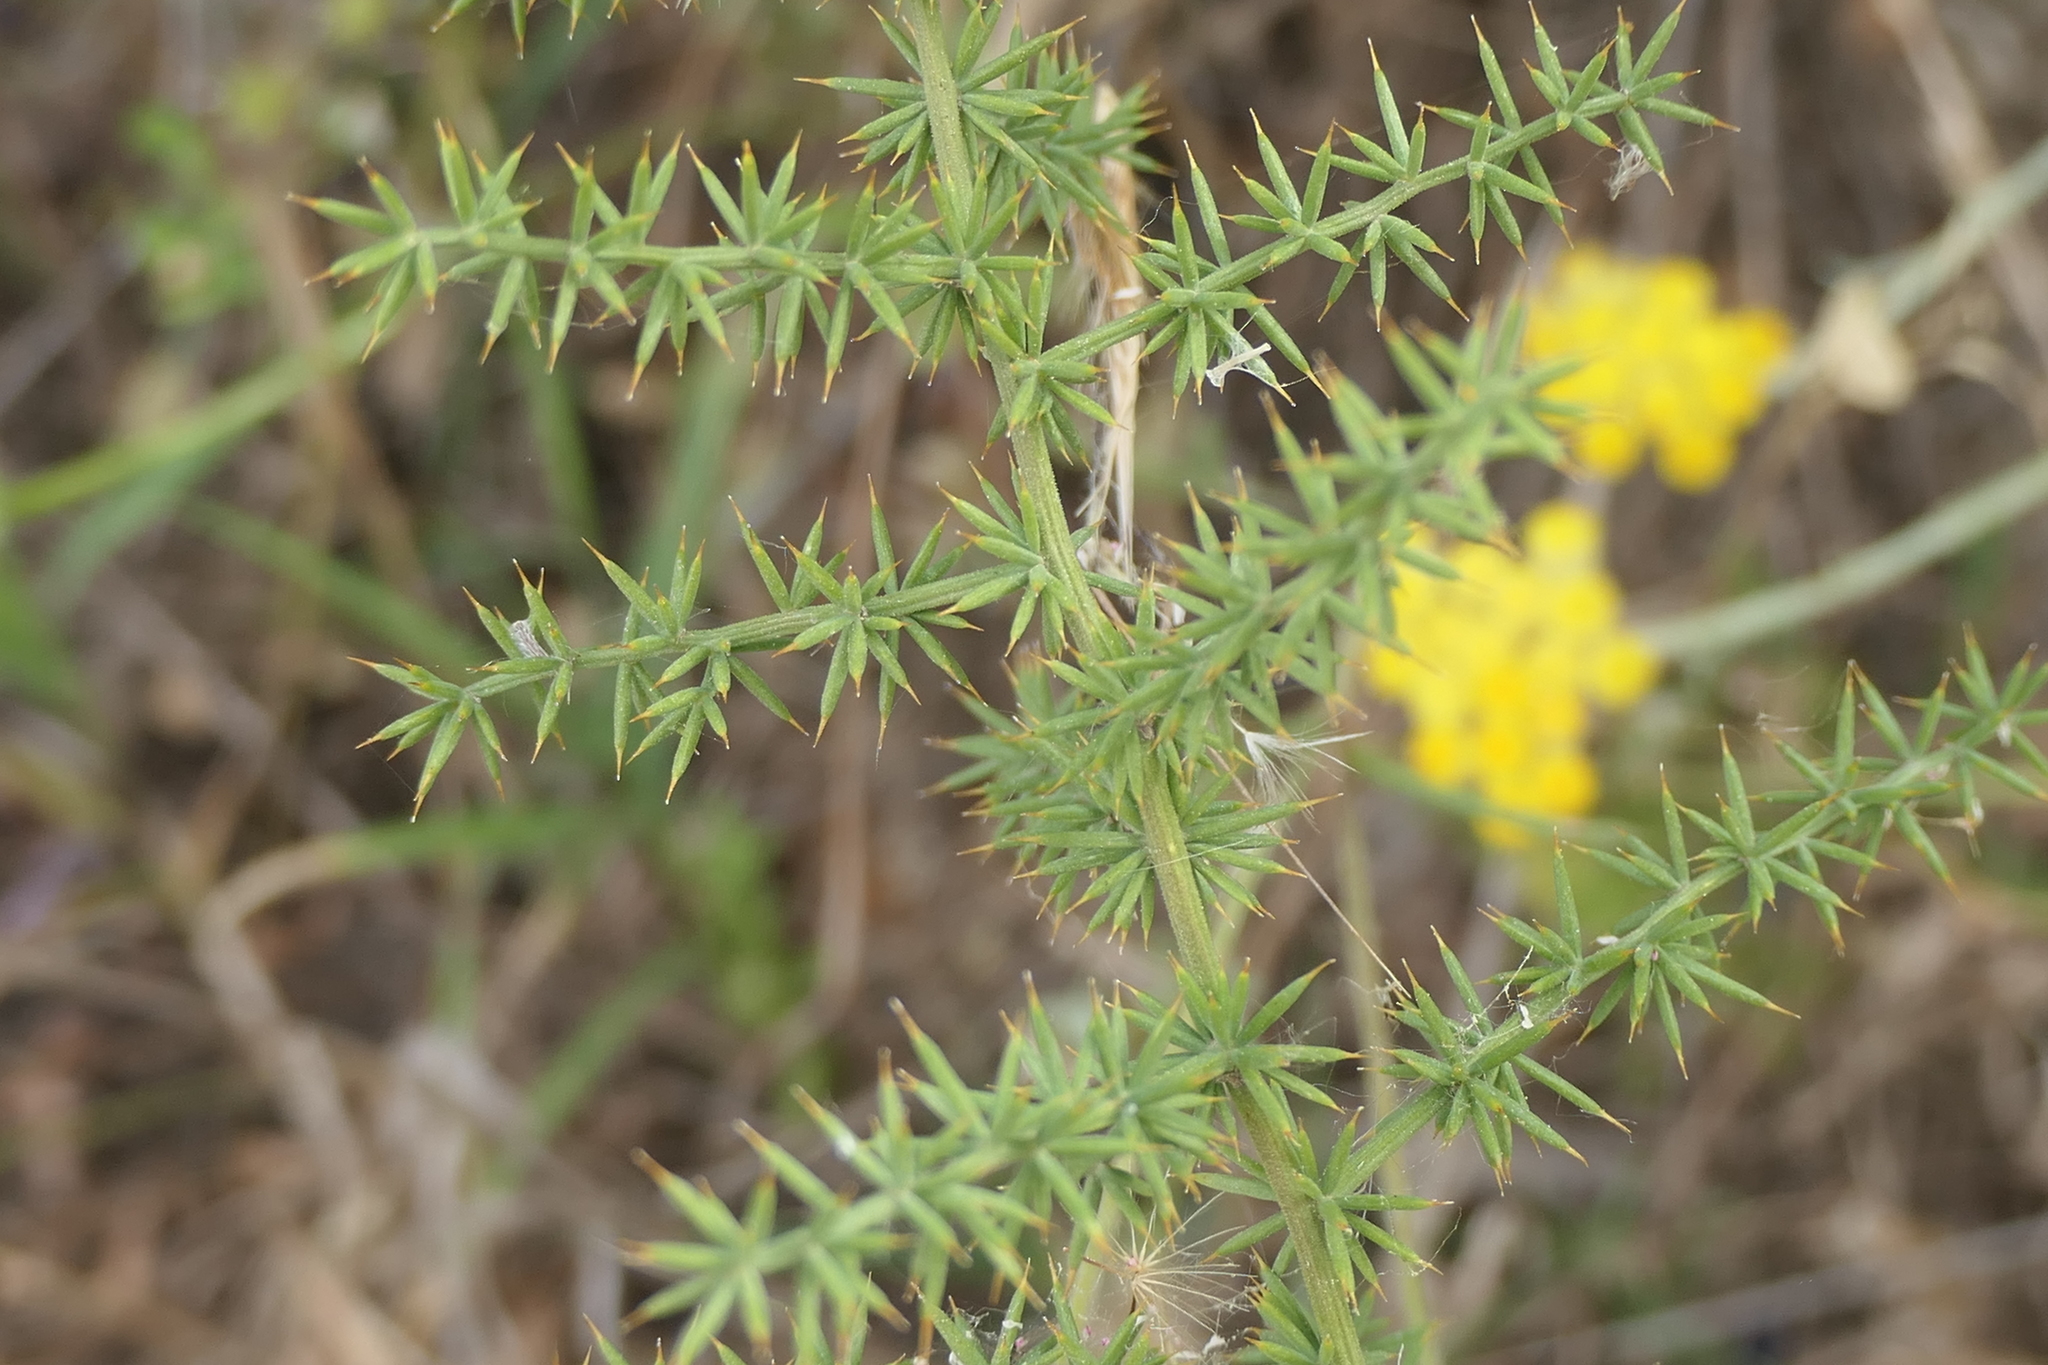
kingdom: Plantae
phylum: Tracheophyta
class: Liliopsida
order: Asparagales
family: Asparagaceae
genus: Asparagus
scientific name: Asparagus acutifolius
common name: Wild asparagus
